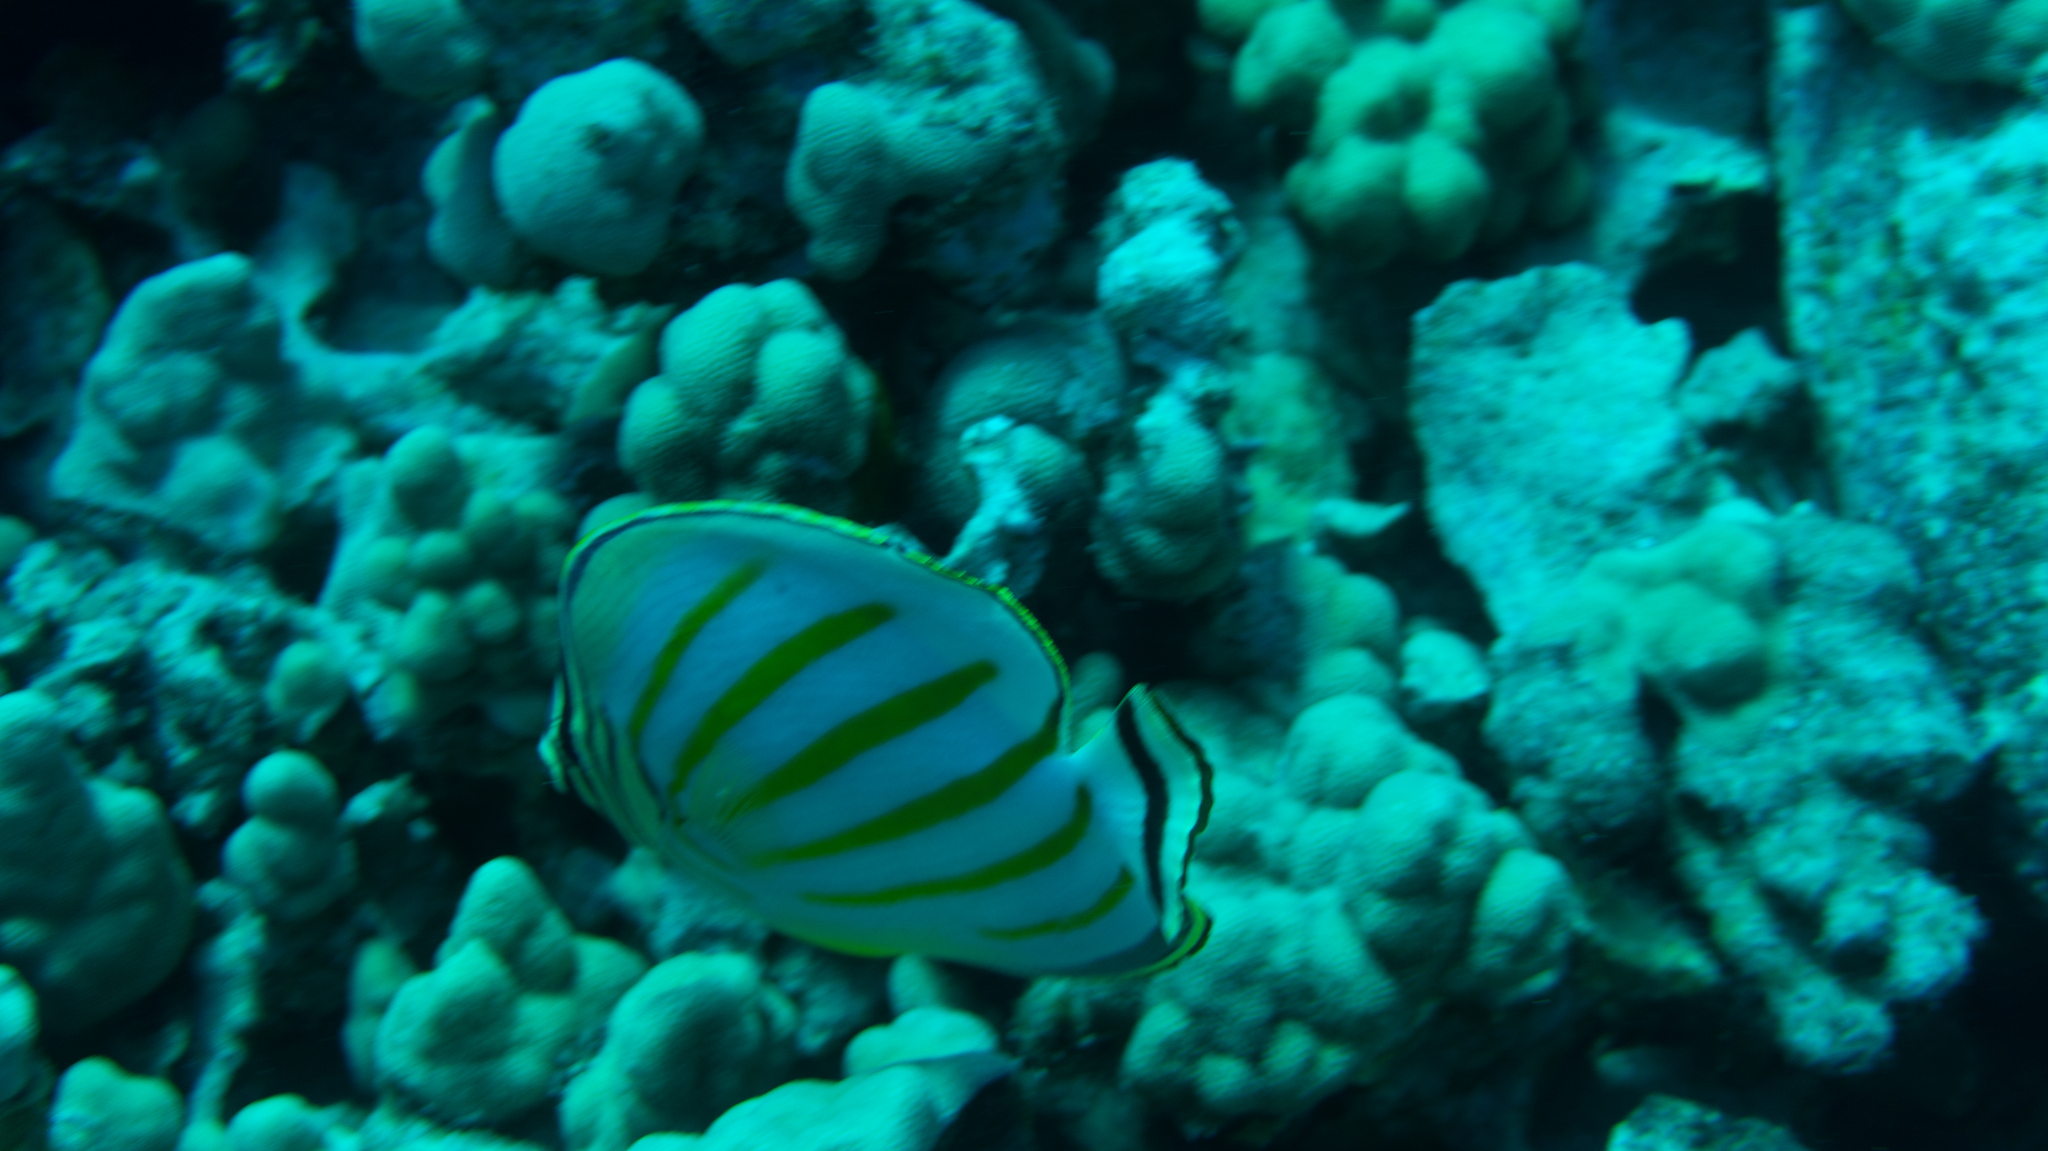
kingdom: Animalia
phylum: Chordata
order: Perciformes
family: Chaetodontidae
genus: Chaetodon
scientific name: Chaetodon ornatissimus
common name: Ornate butterflyfish
